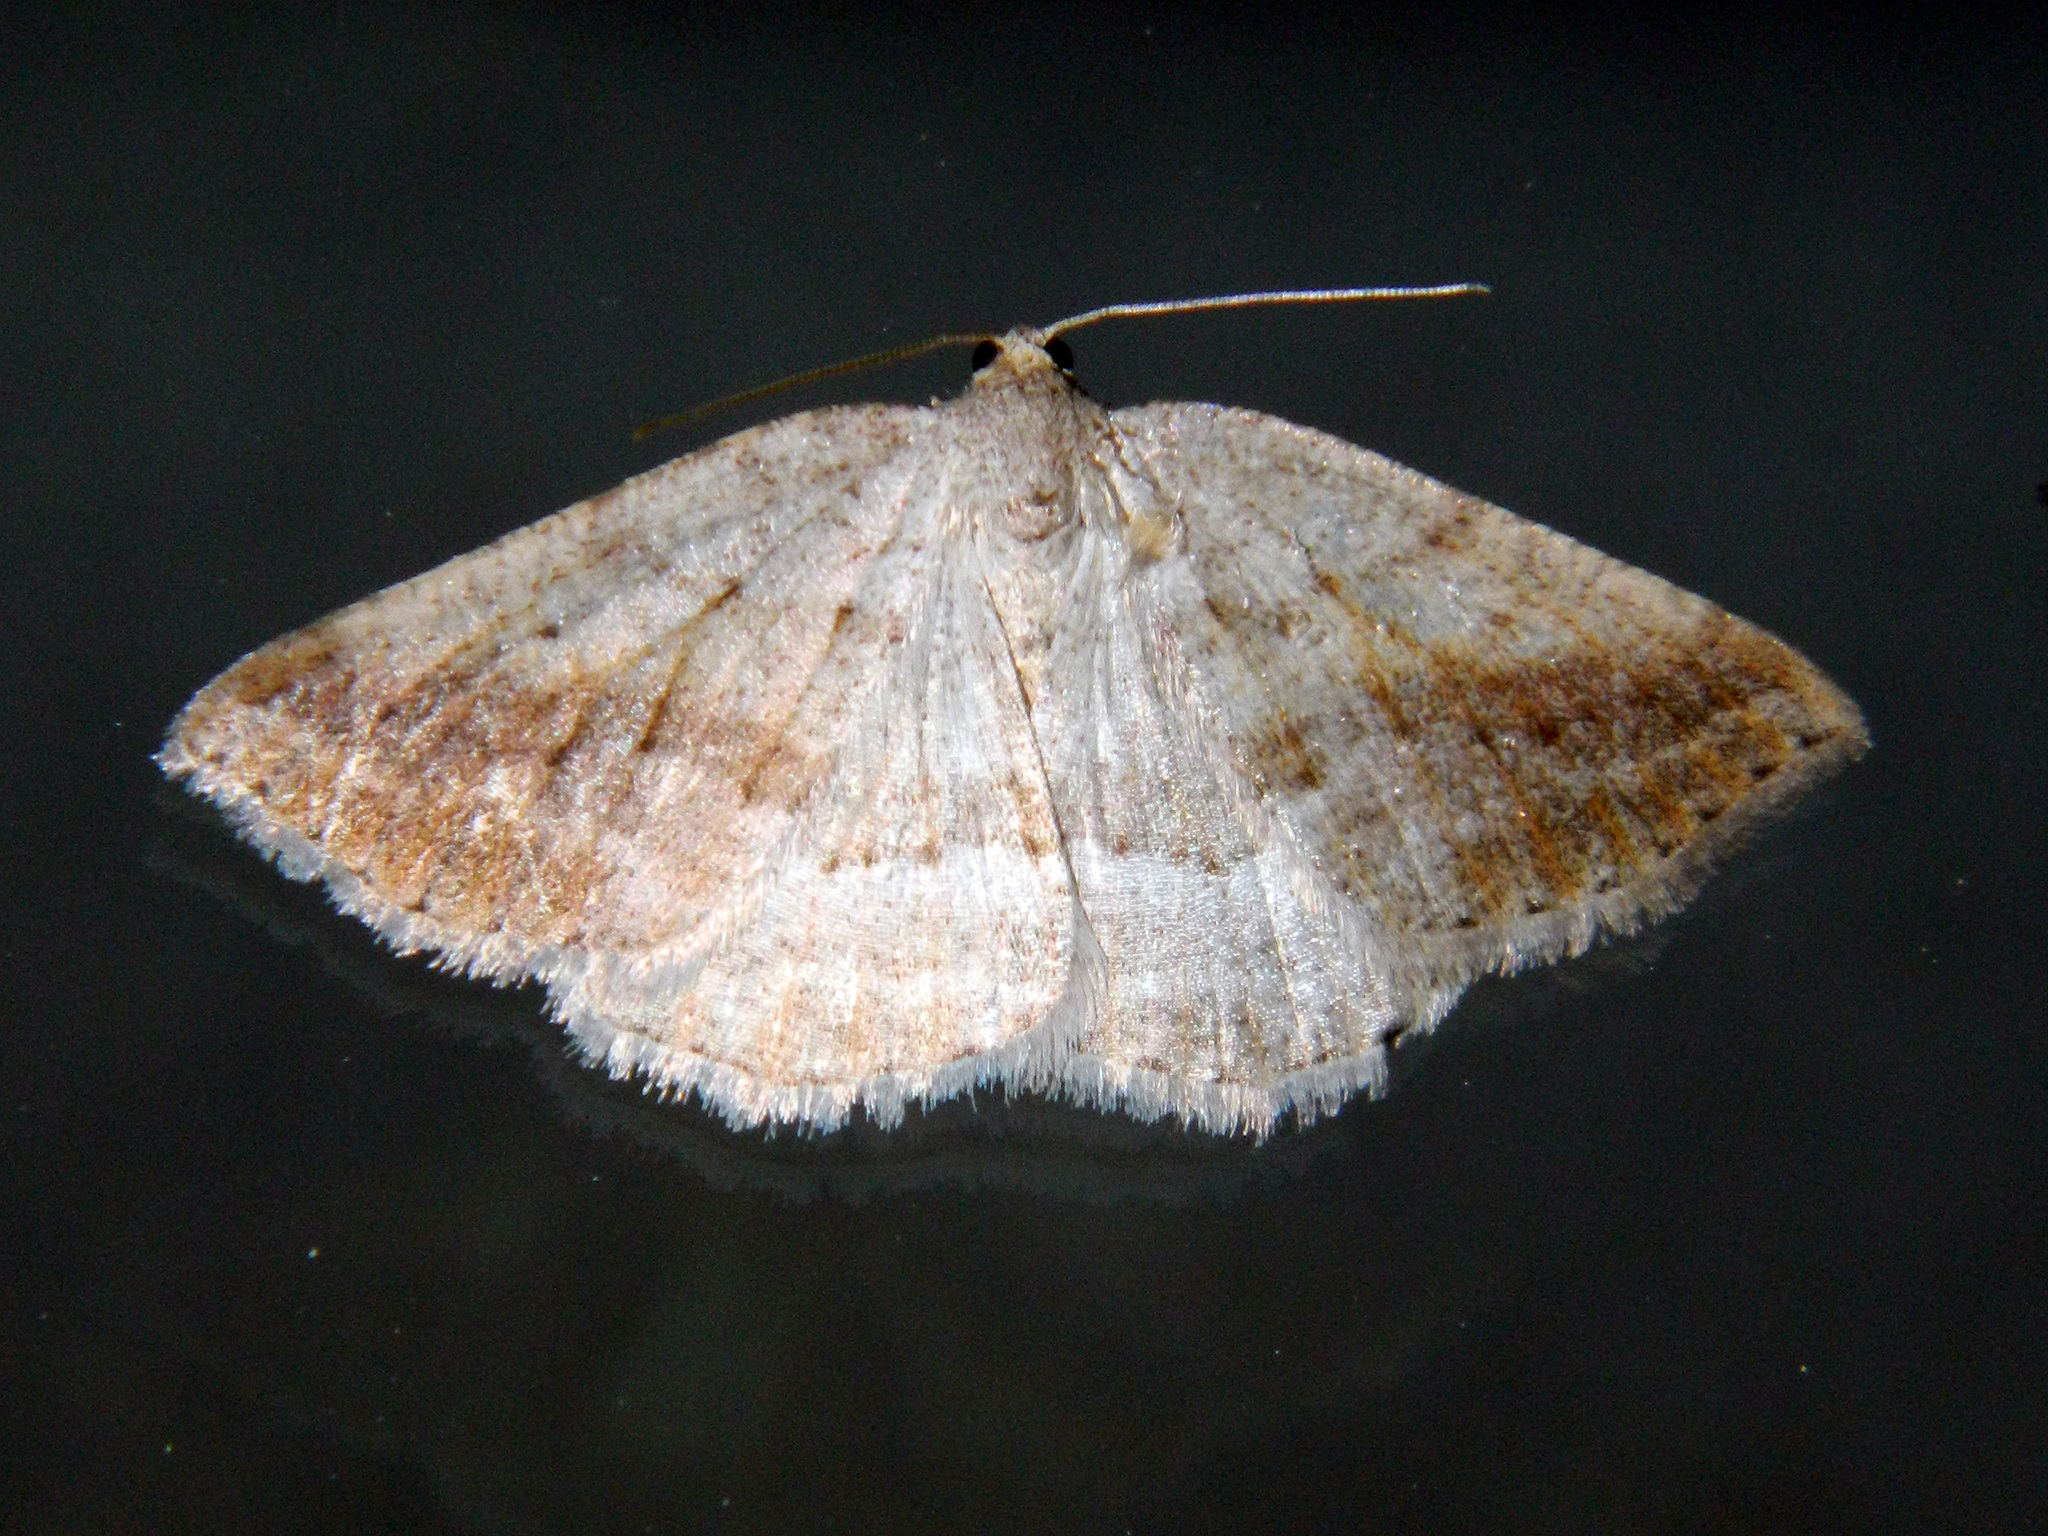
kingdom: Animalia
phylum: Arthropoda
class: Insecta
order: Lepidoptera
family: Geometridae
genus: Tacparia
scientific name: Tacparia detersata
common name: Pale alder moth
